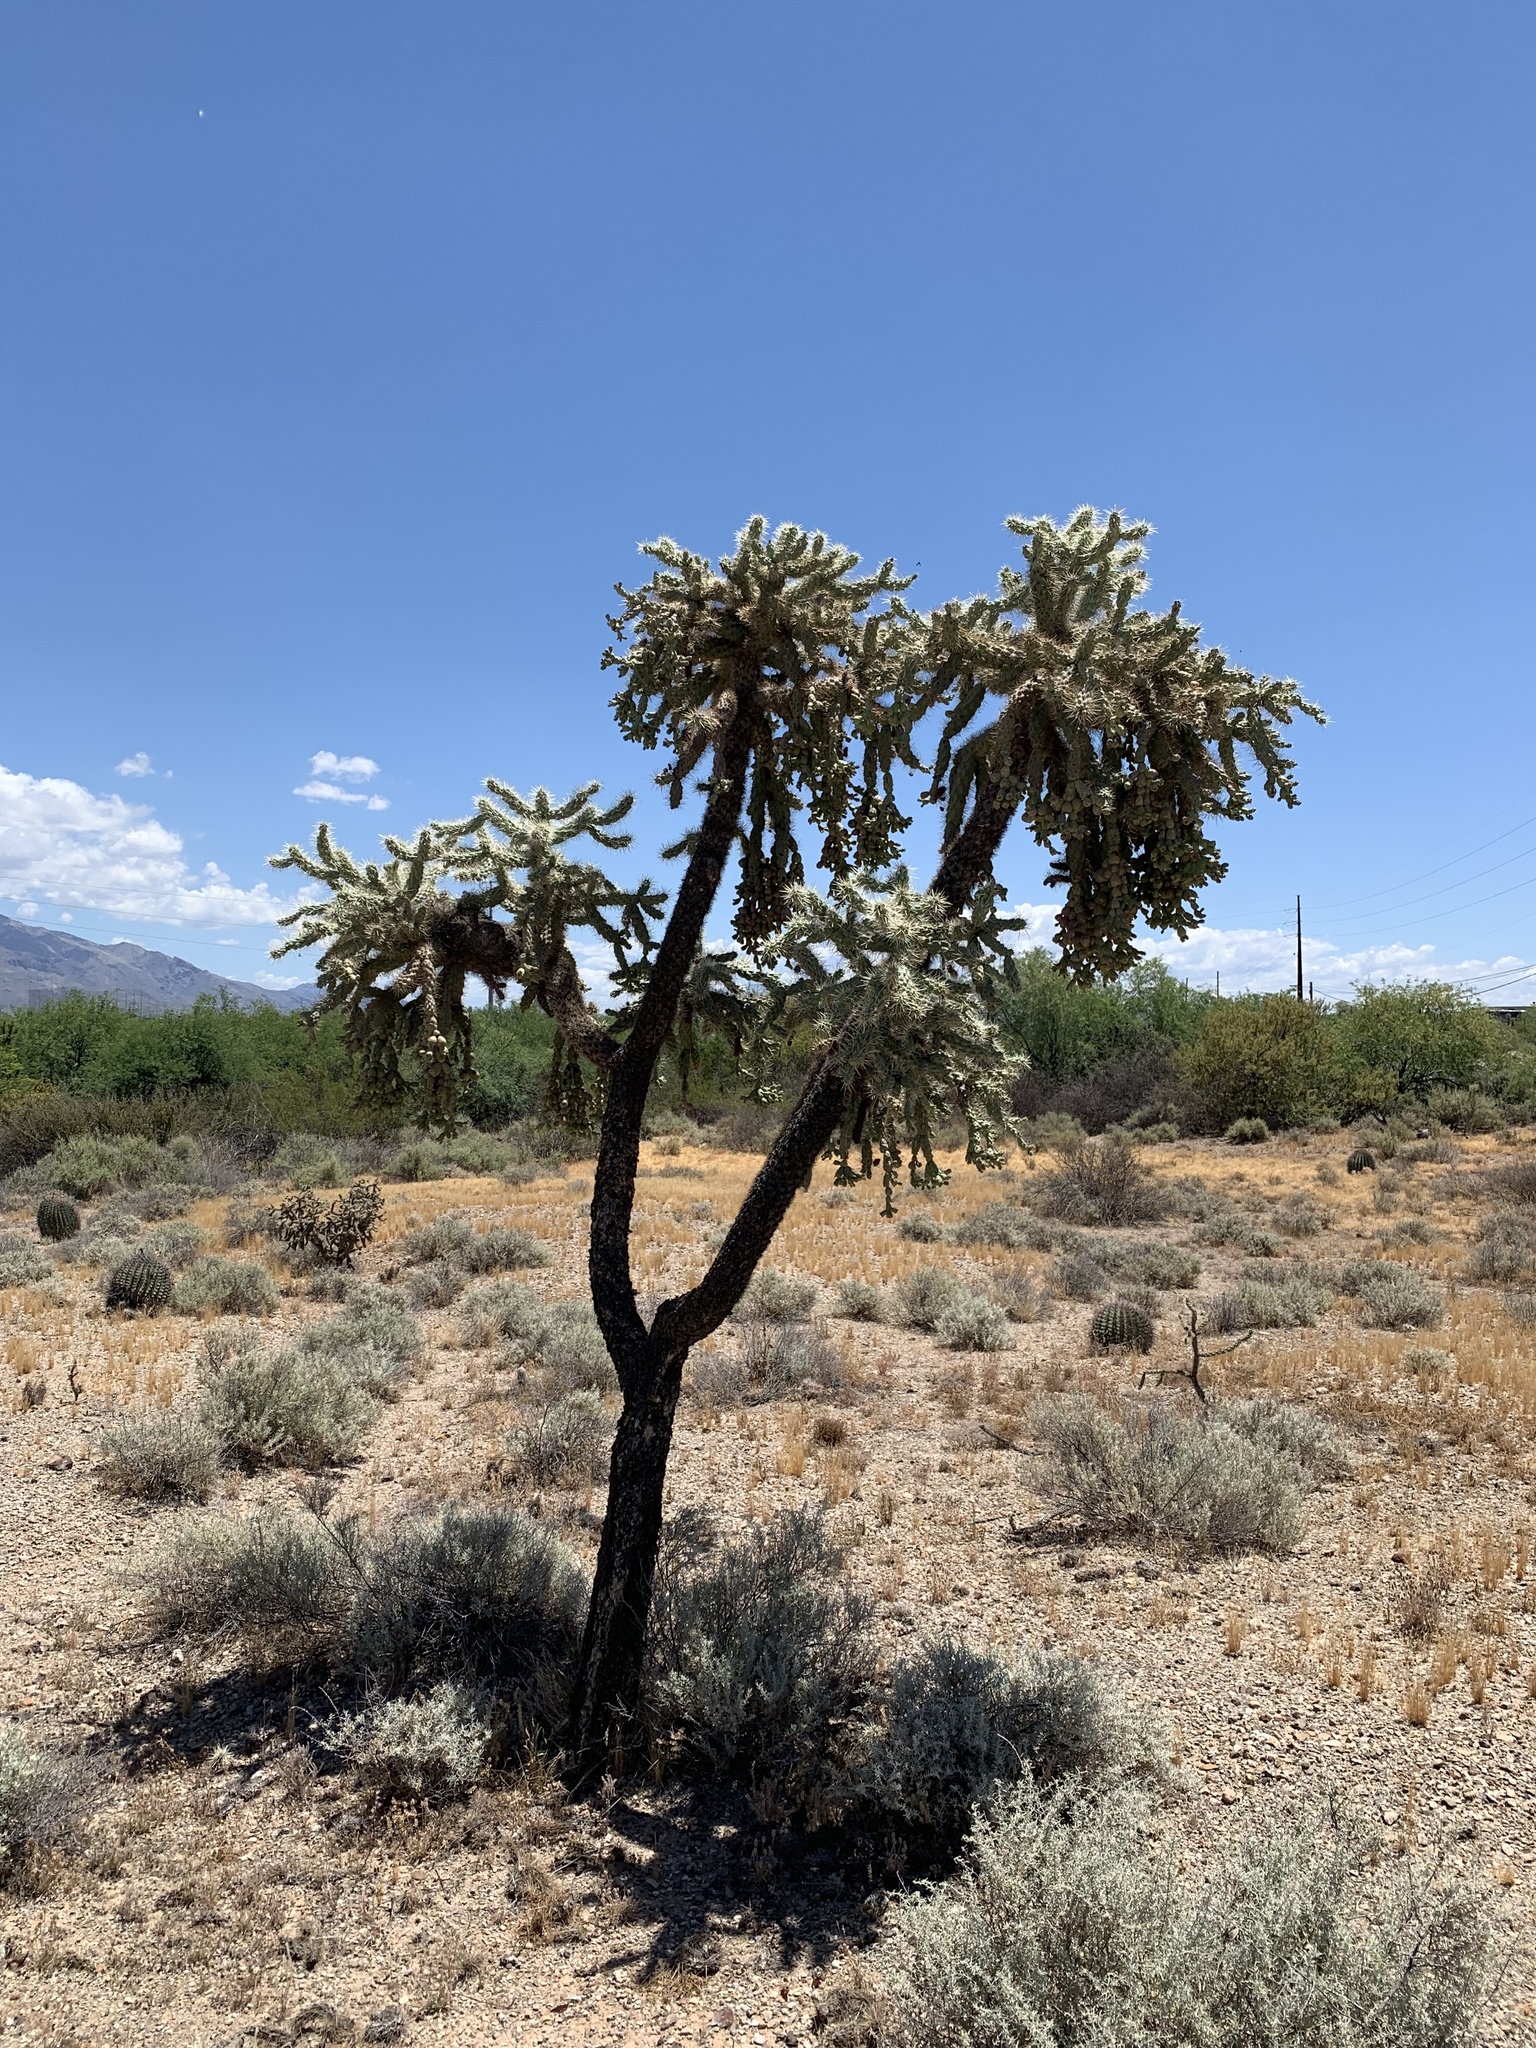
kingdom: Plantae
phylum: Tracheophyta
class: Magnoliopsida
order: Caryophyllales
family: Cactaceae
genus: Cylindropuntia
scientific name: Cylindropuntia fulgida
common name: Jumping cholla
